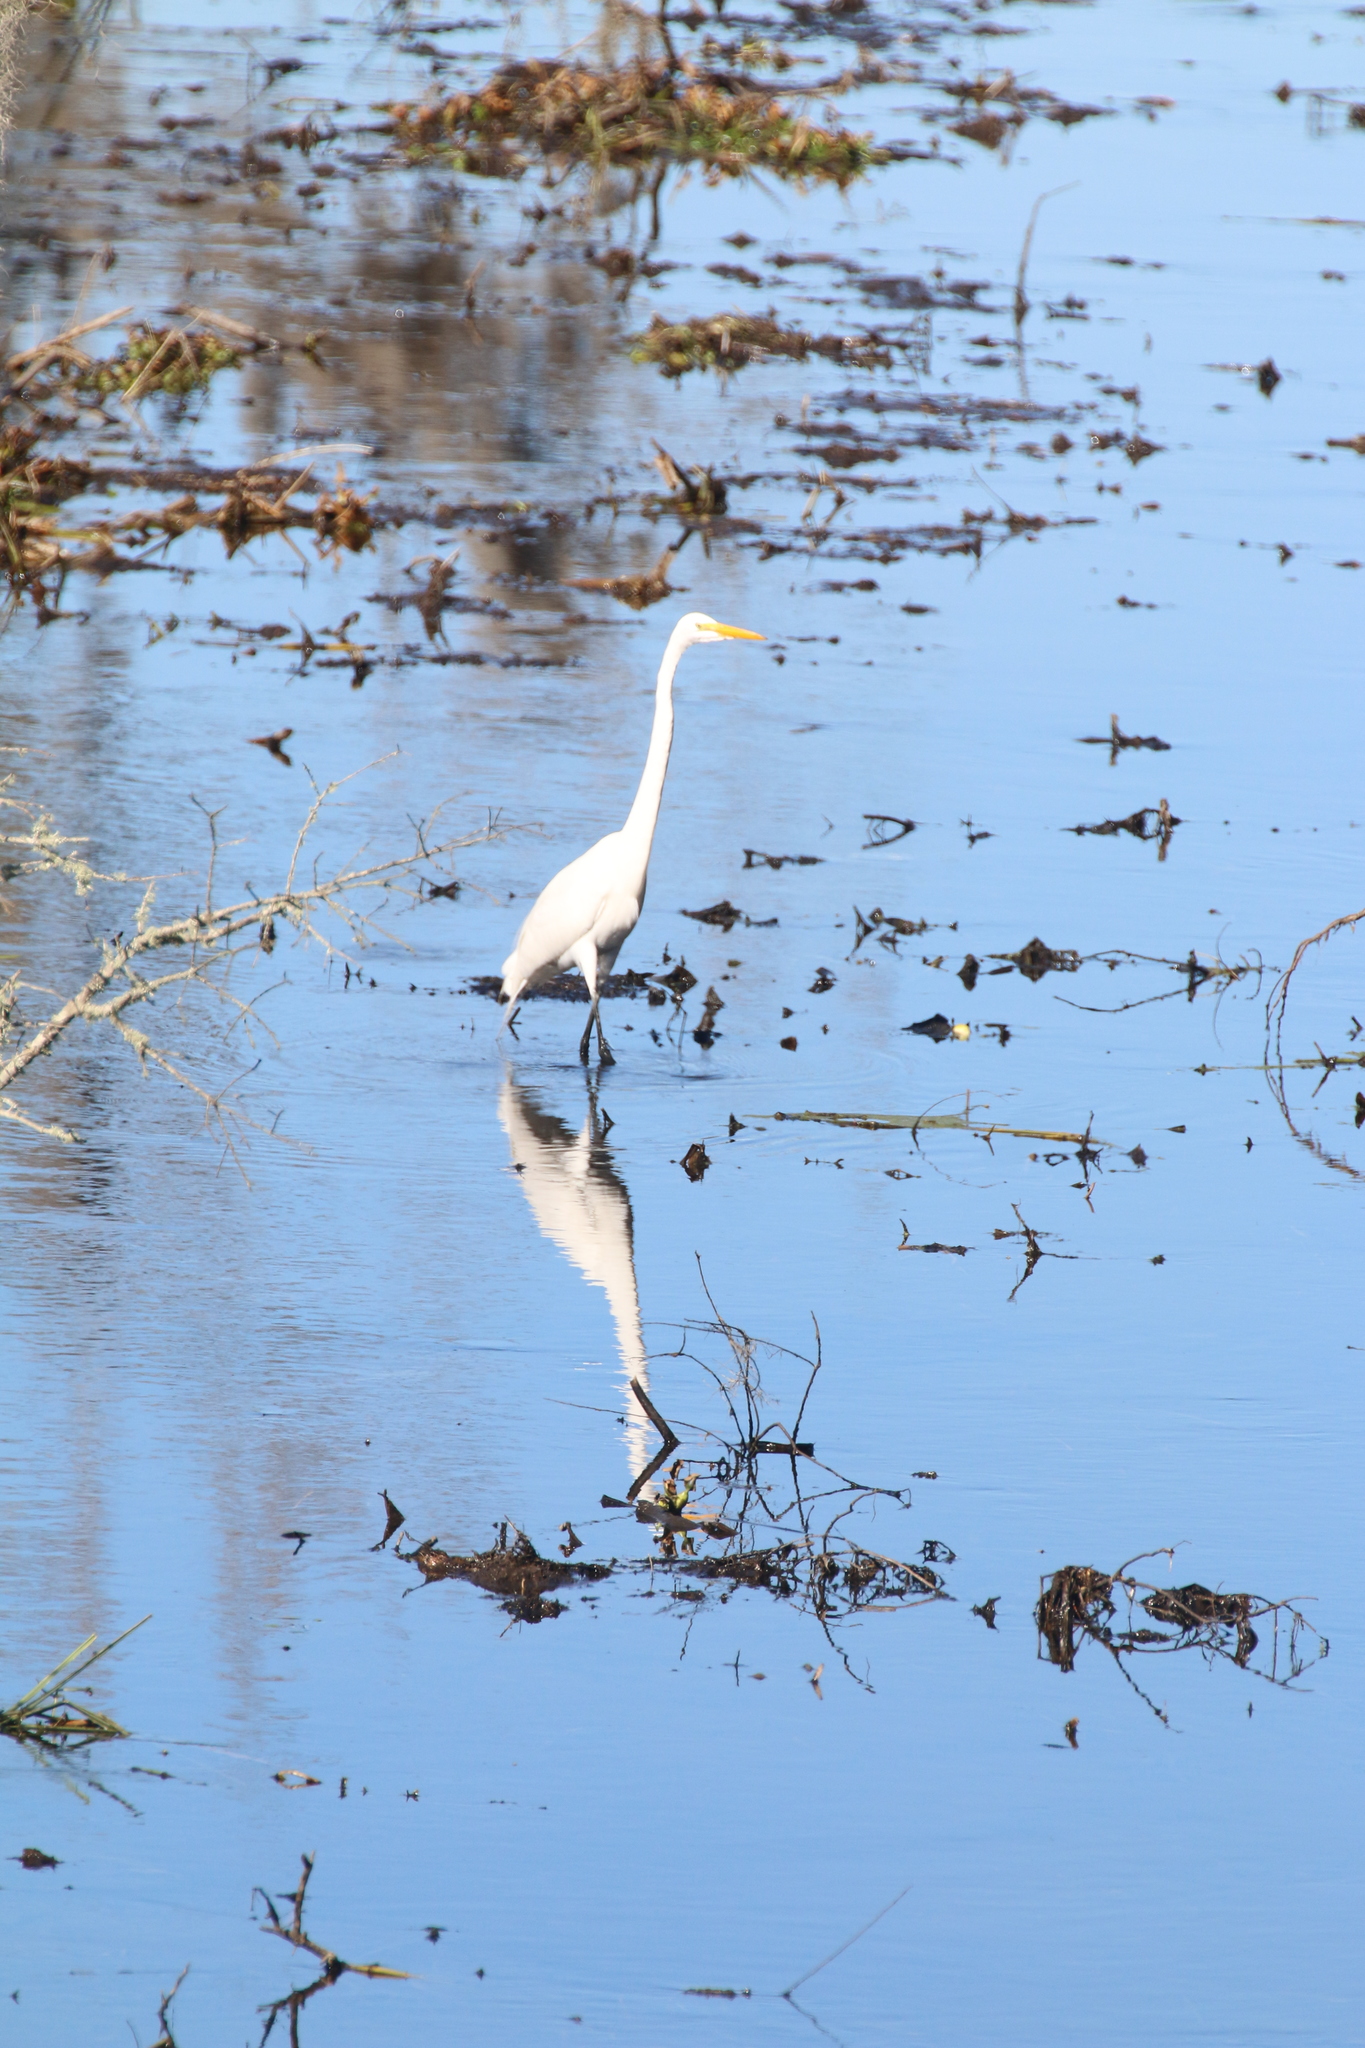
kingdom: Animalia
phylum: Chordata
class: Aves
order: Pelecaniformes
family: Ardeidae
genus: Ardea
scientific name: Ardea alba
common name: Great egret
